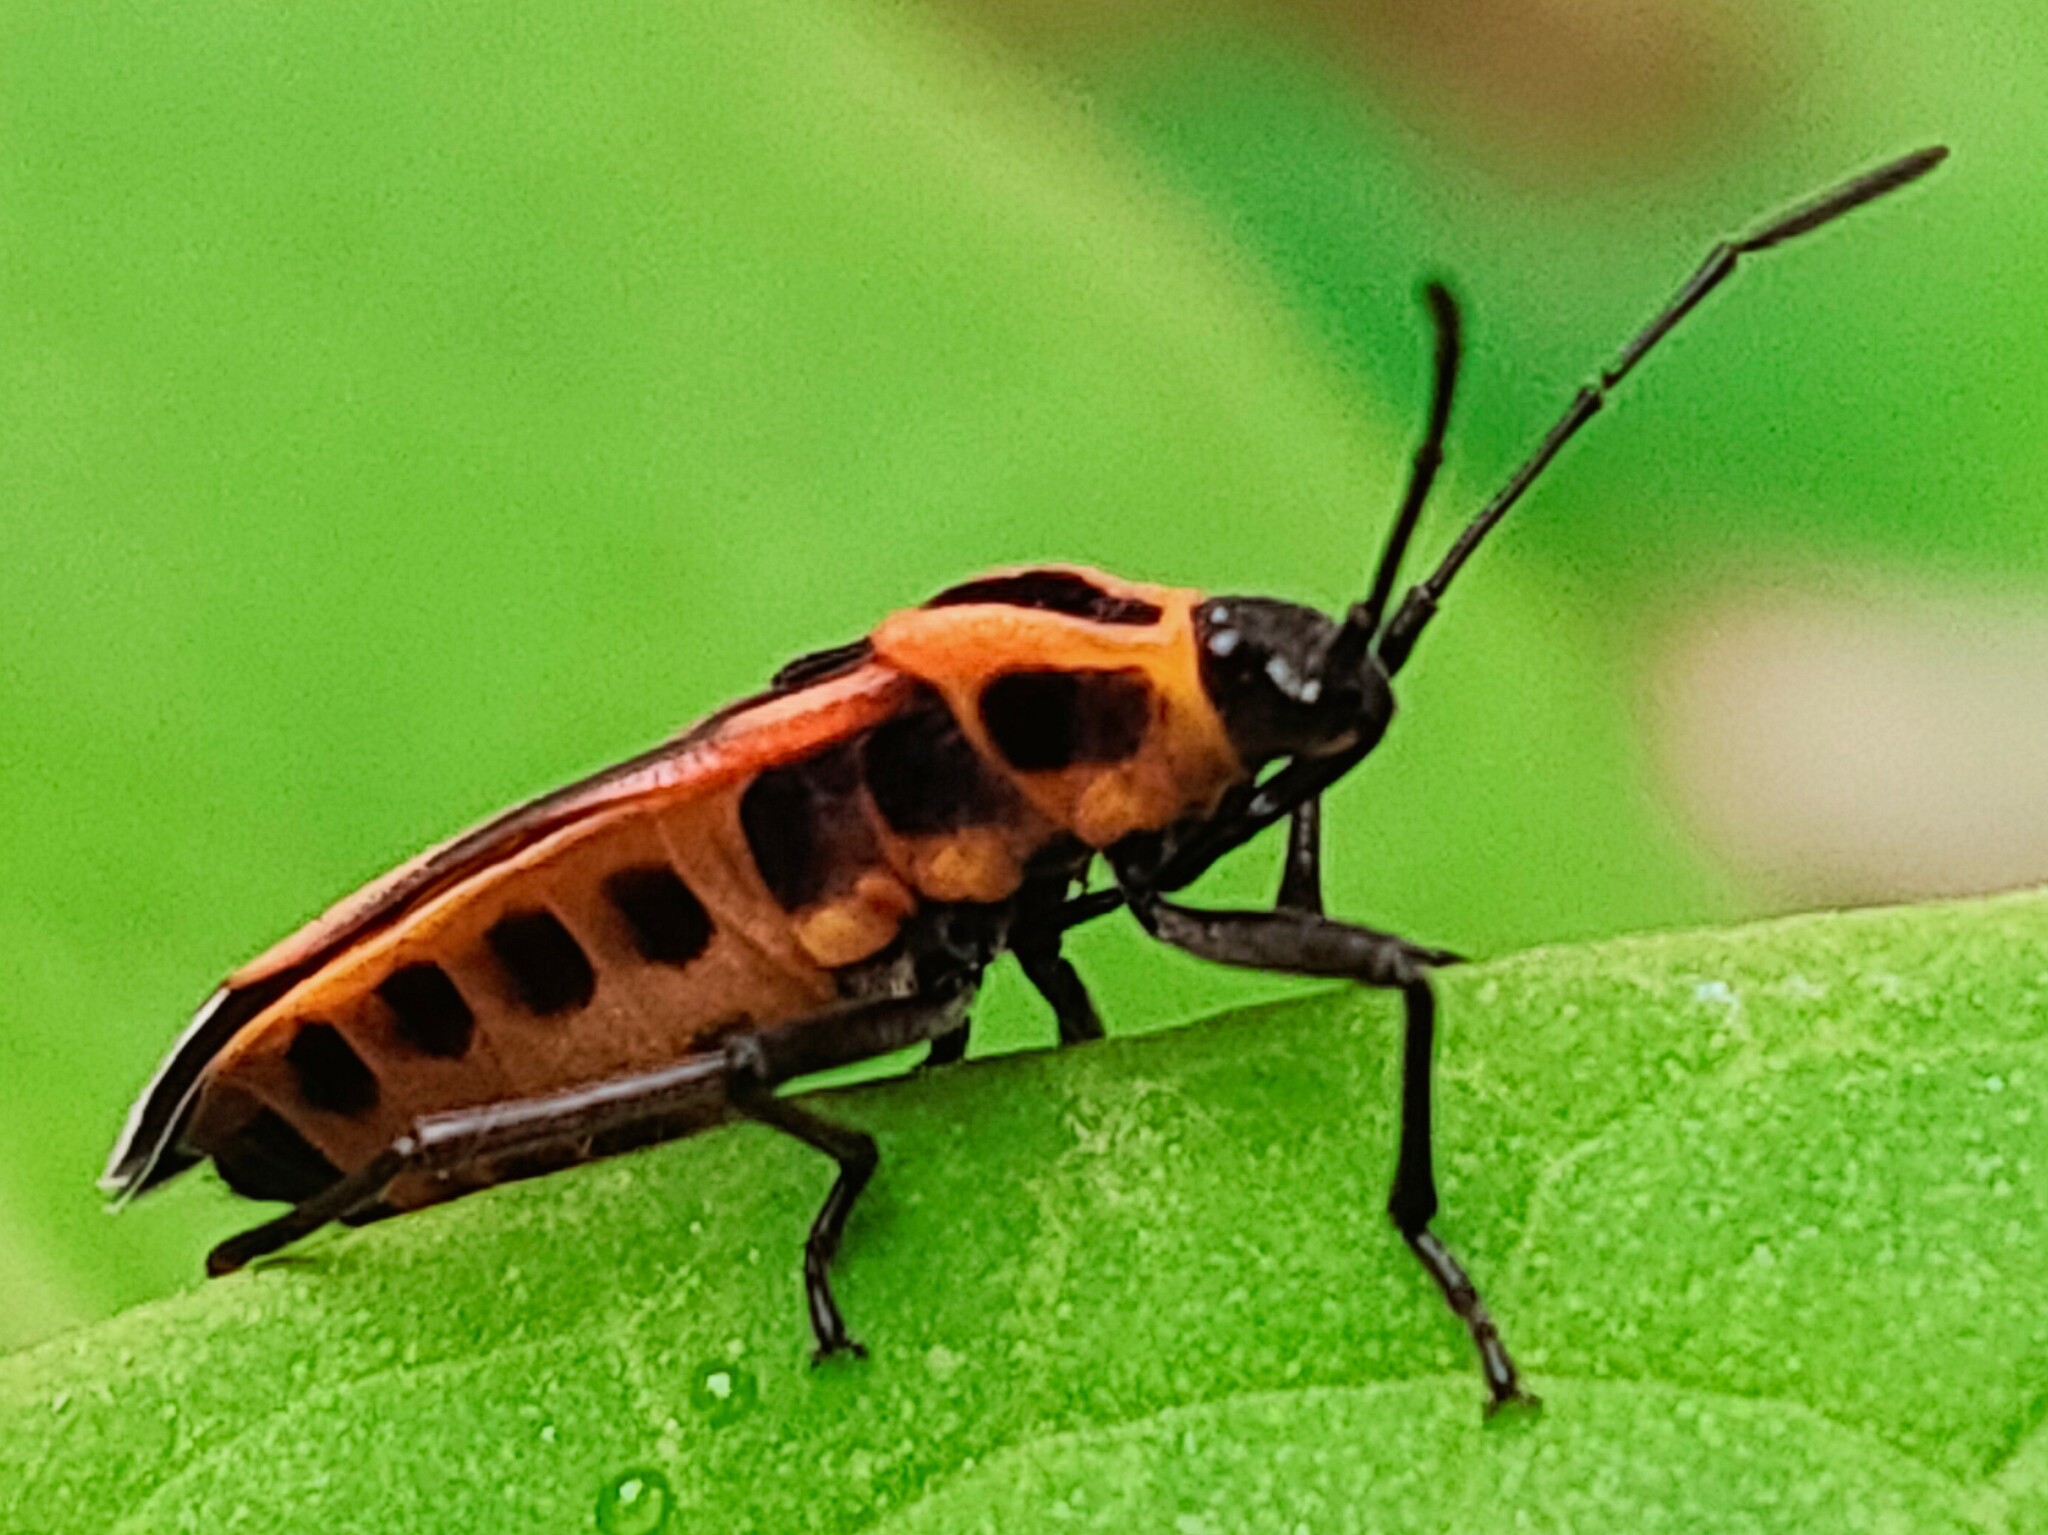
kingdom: Animalia
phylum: Arthropoda
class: Insecta
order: Hemiptera
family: Lygaeidae
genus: Tropidothorax
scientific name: Tropidothorax cruciger
